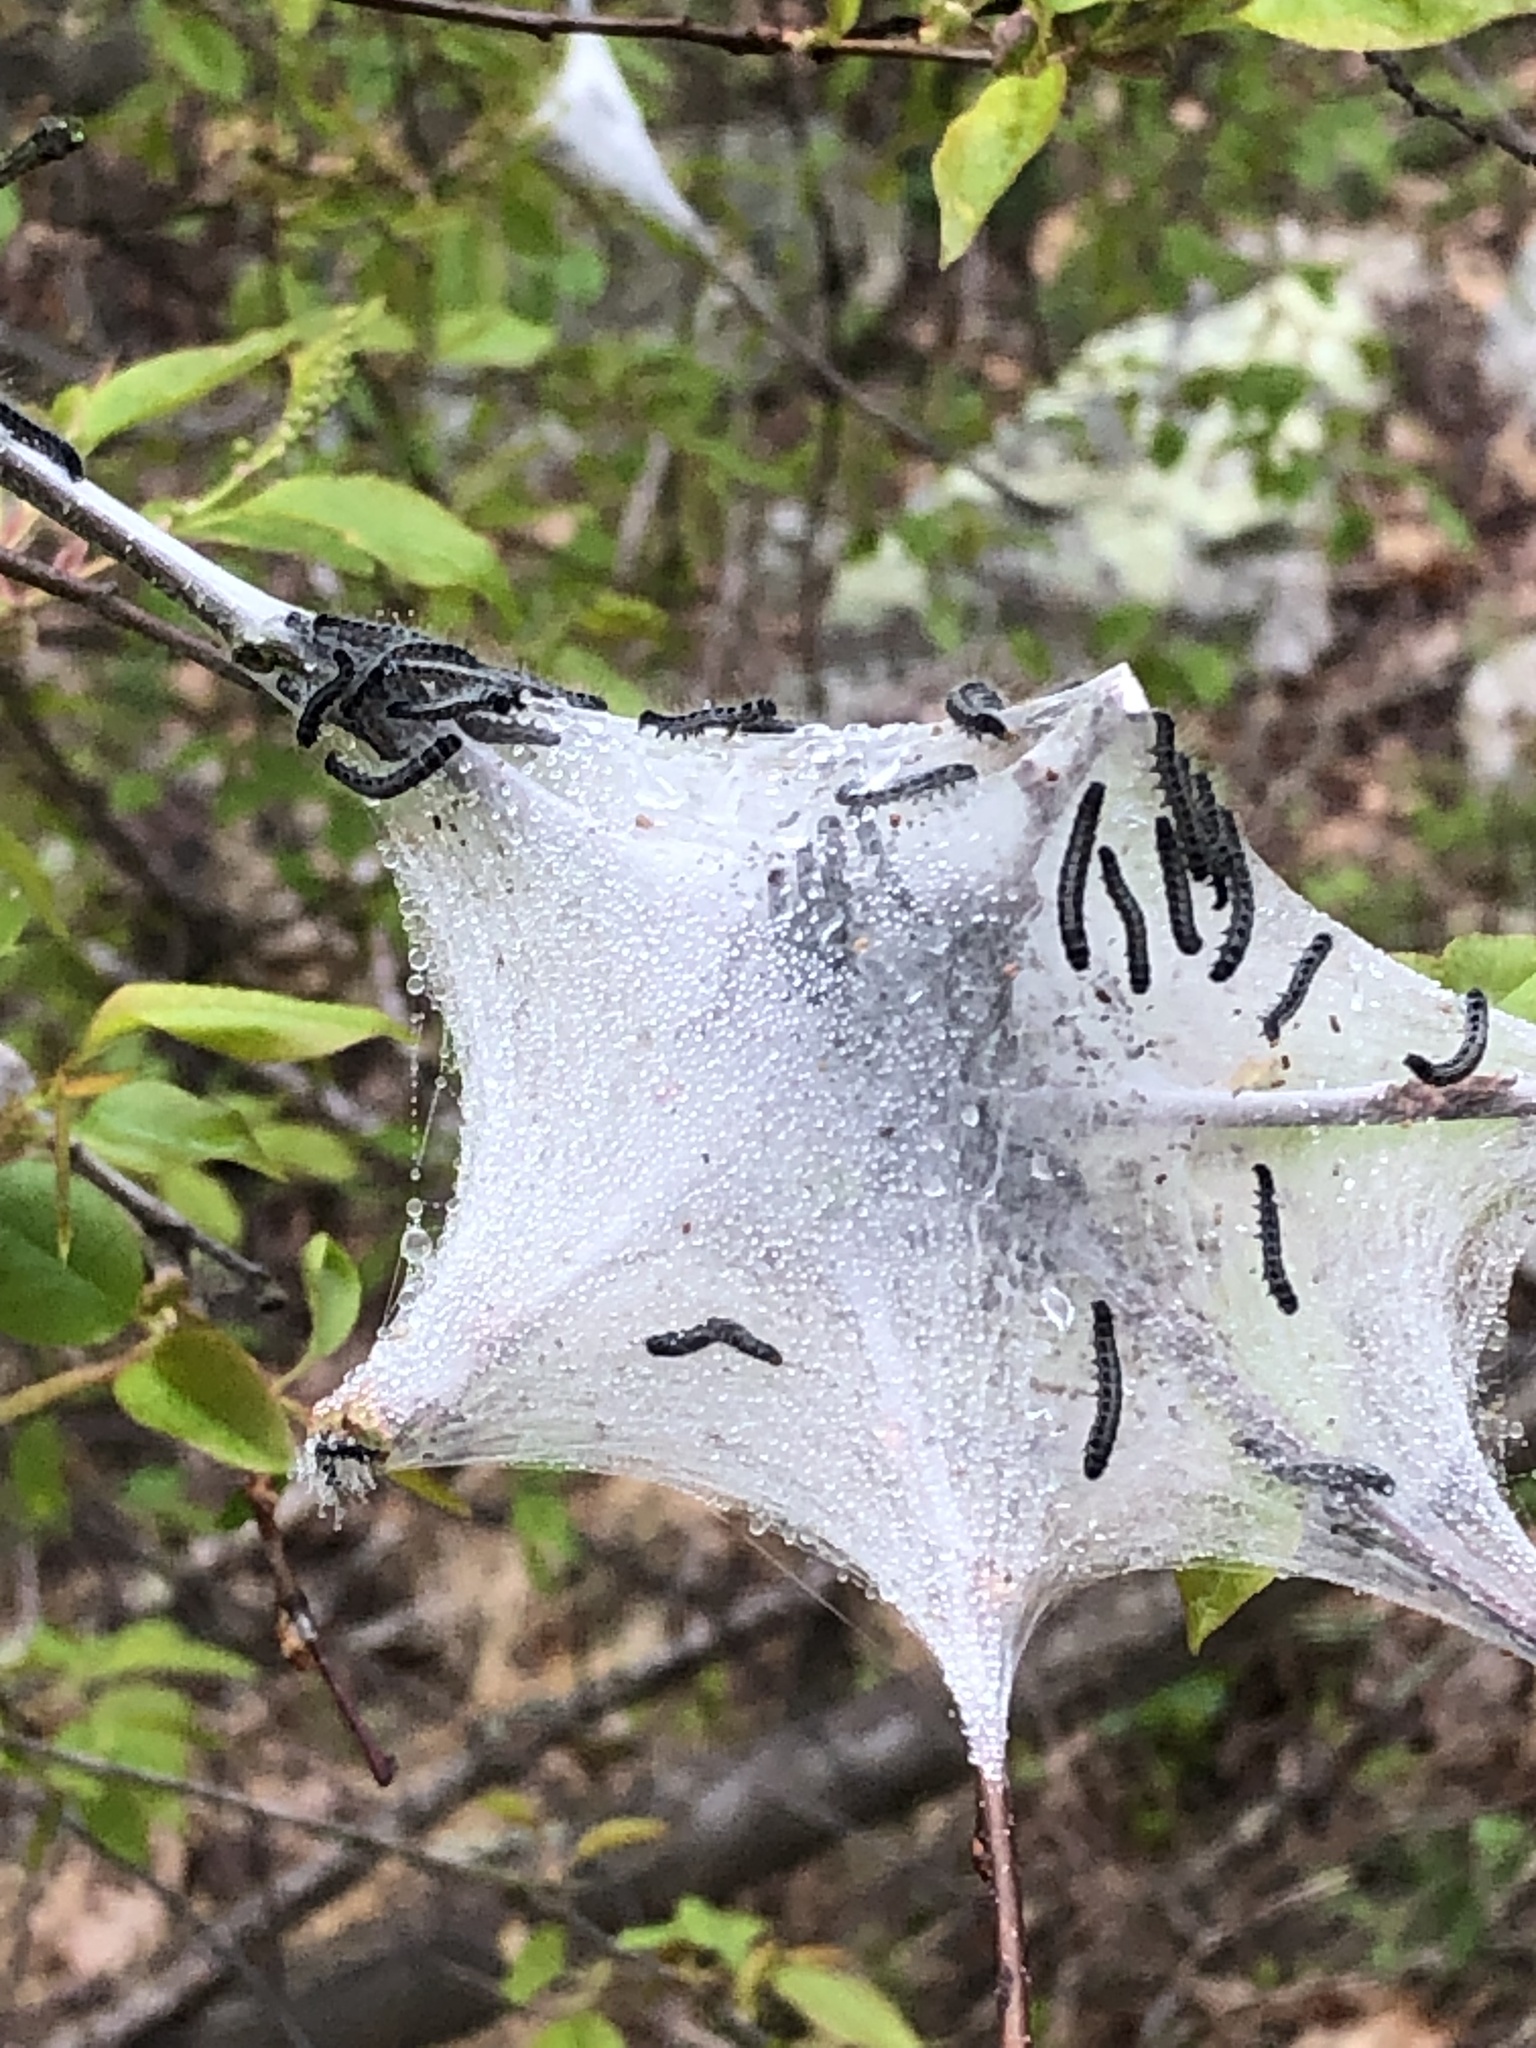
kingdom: Animalia
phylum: Arthropoda
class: Insecta
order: Lepidoptera
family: Lasiocampidae
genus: Malacosoma
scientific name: Malacosoma americana
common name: Eastern tent caterpillar moth
